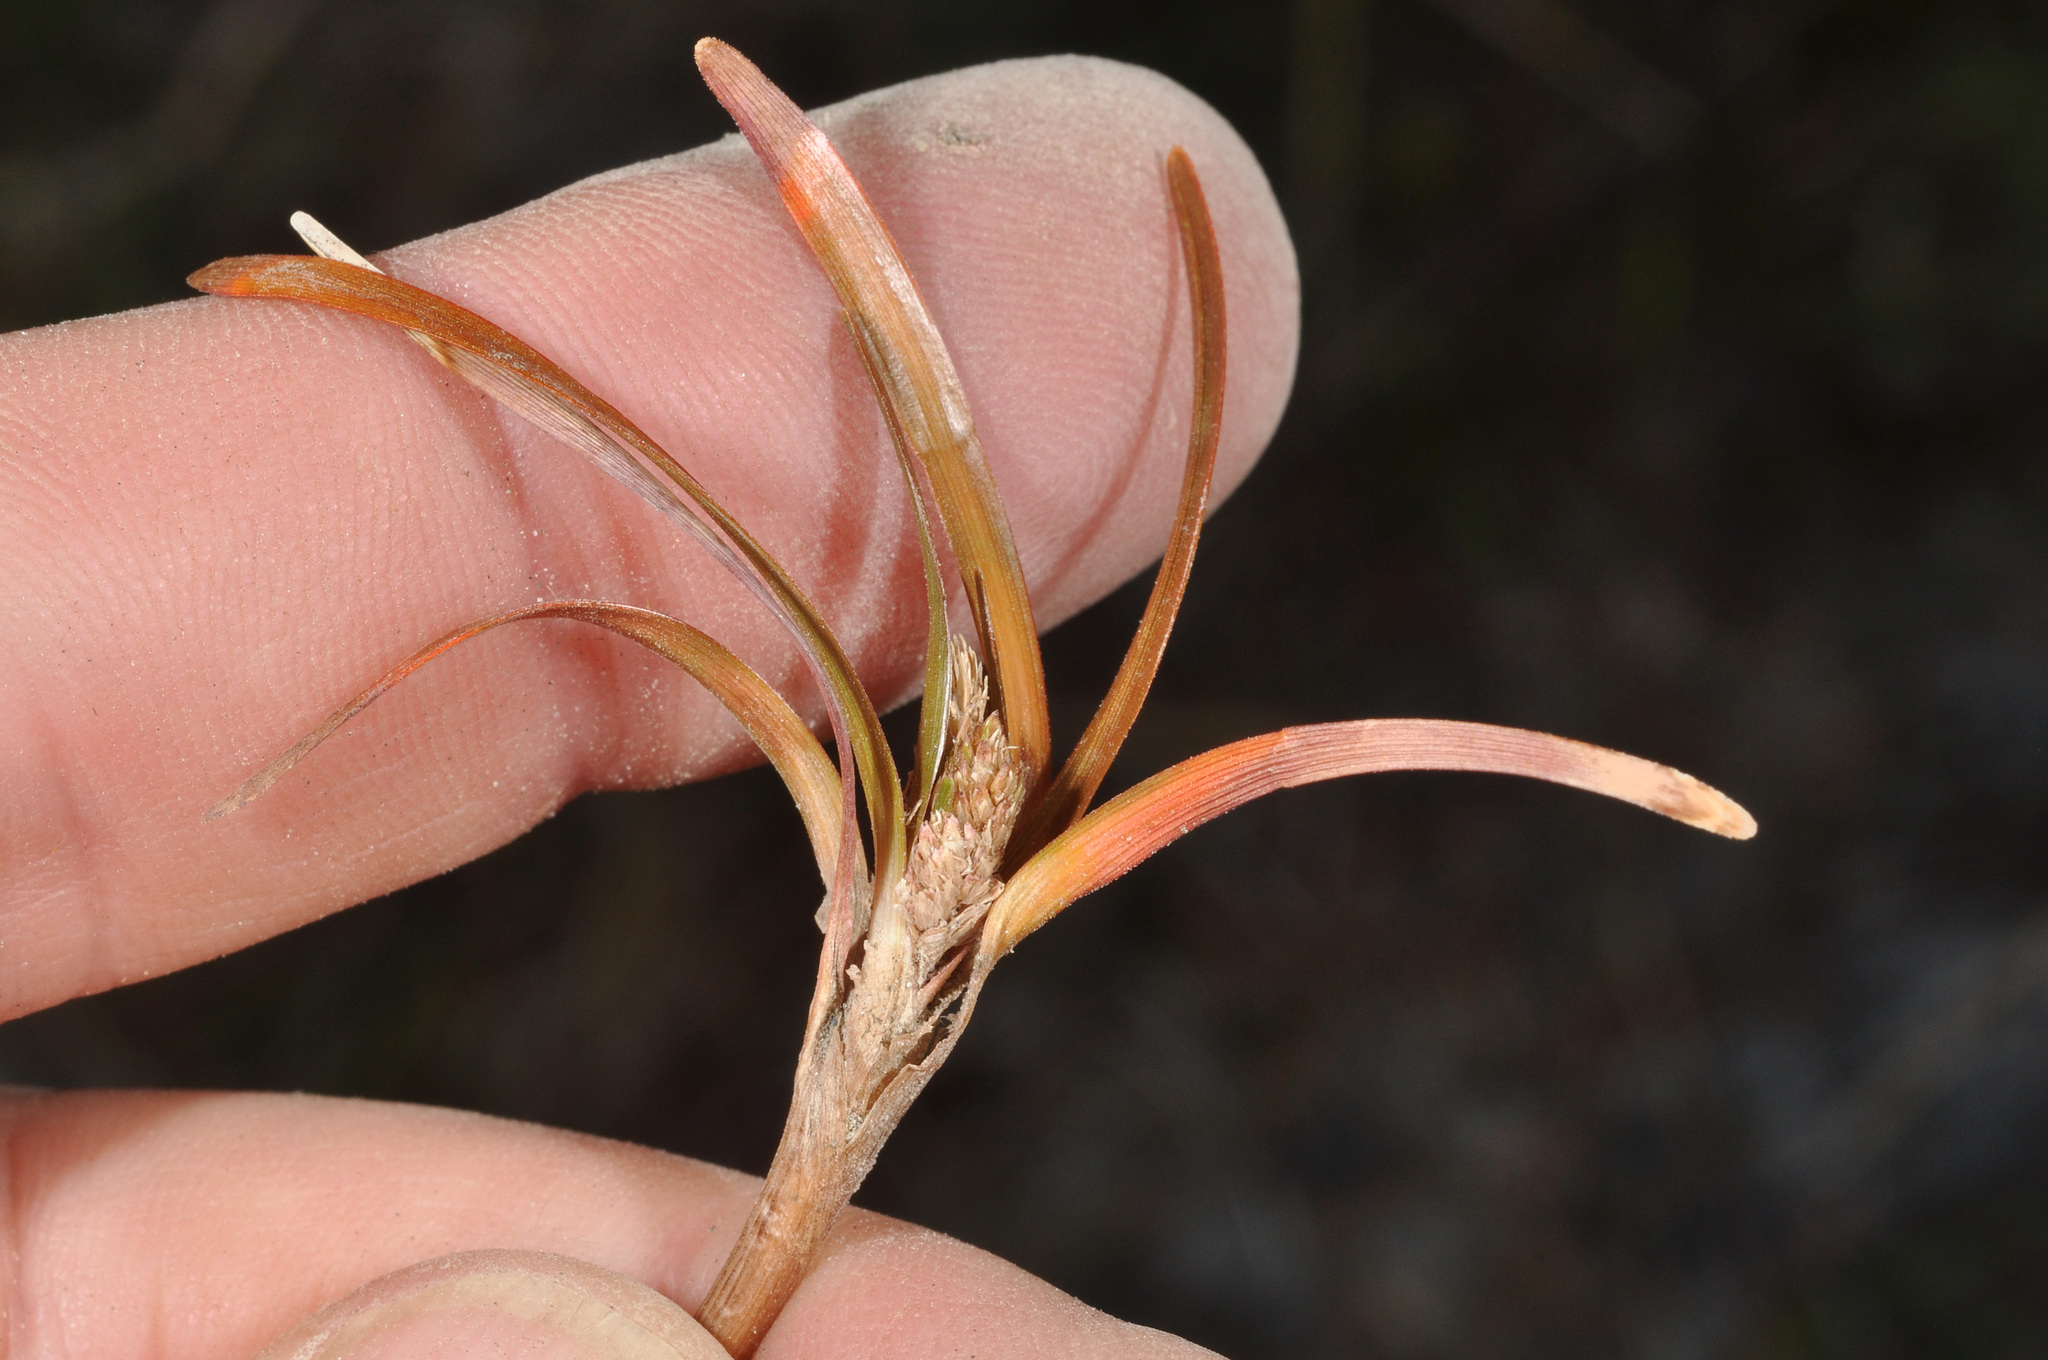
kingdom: Plantae
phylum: Tracheophyta
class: Liliopsida
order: Poales
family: Cyperaceae
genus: Carex
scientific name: Carex talbotii
